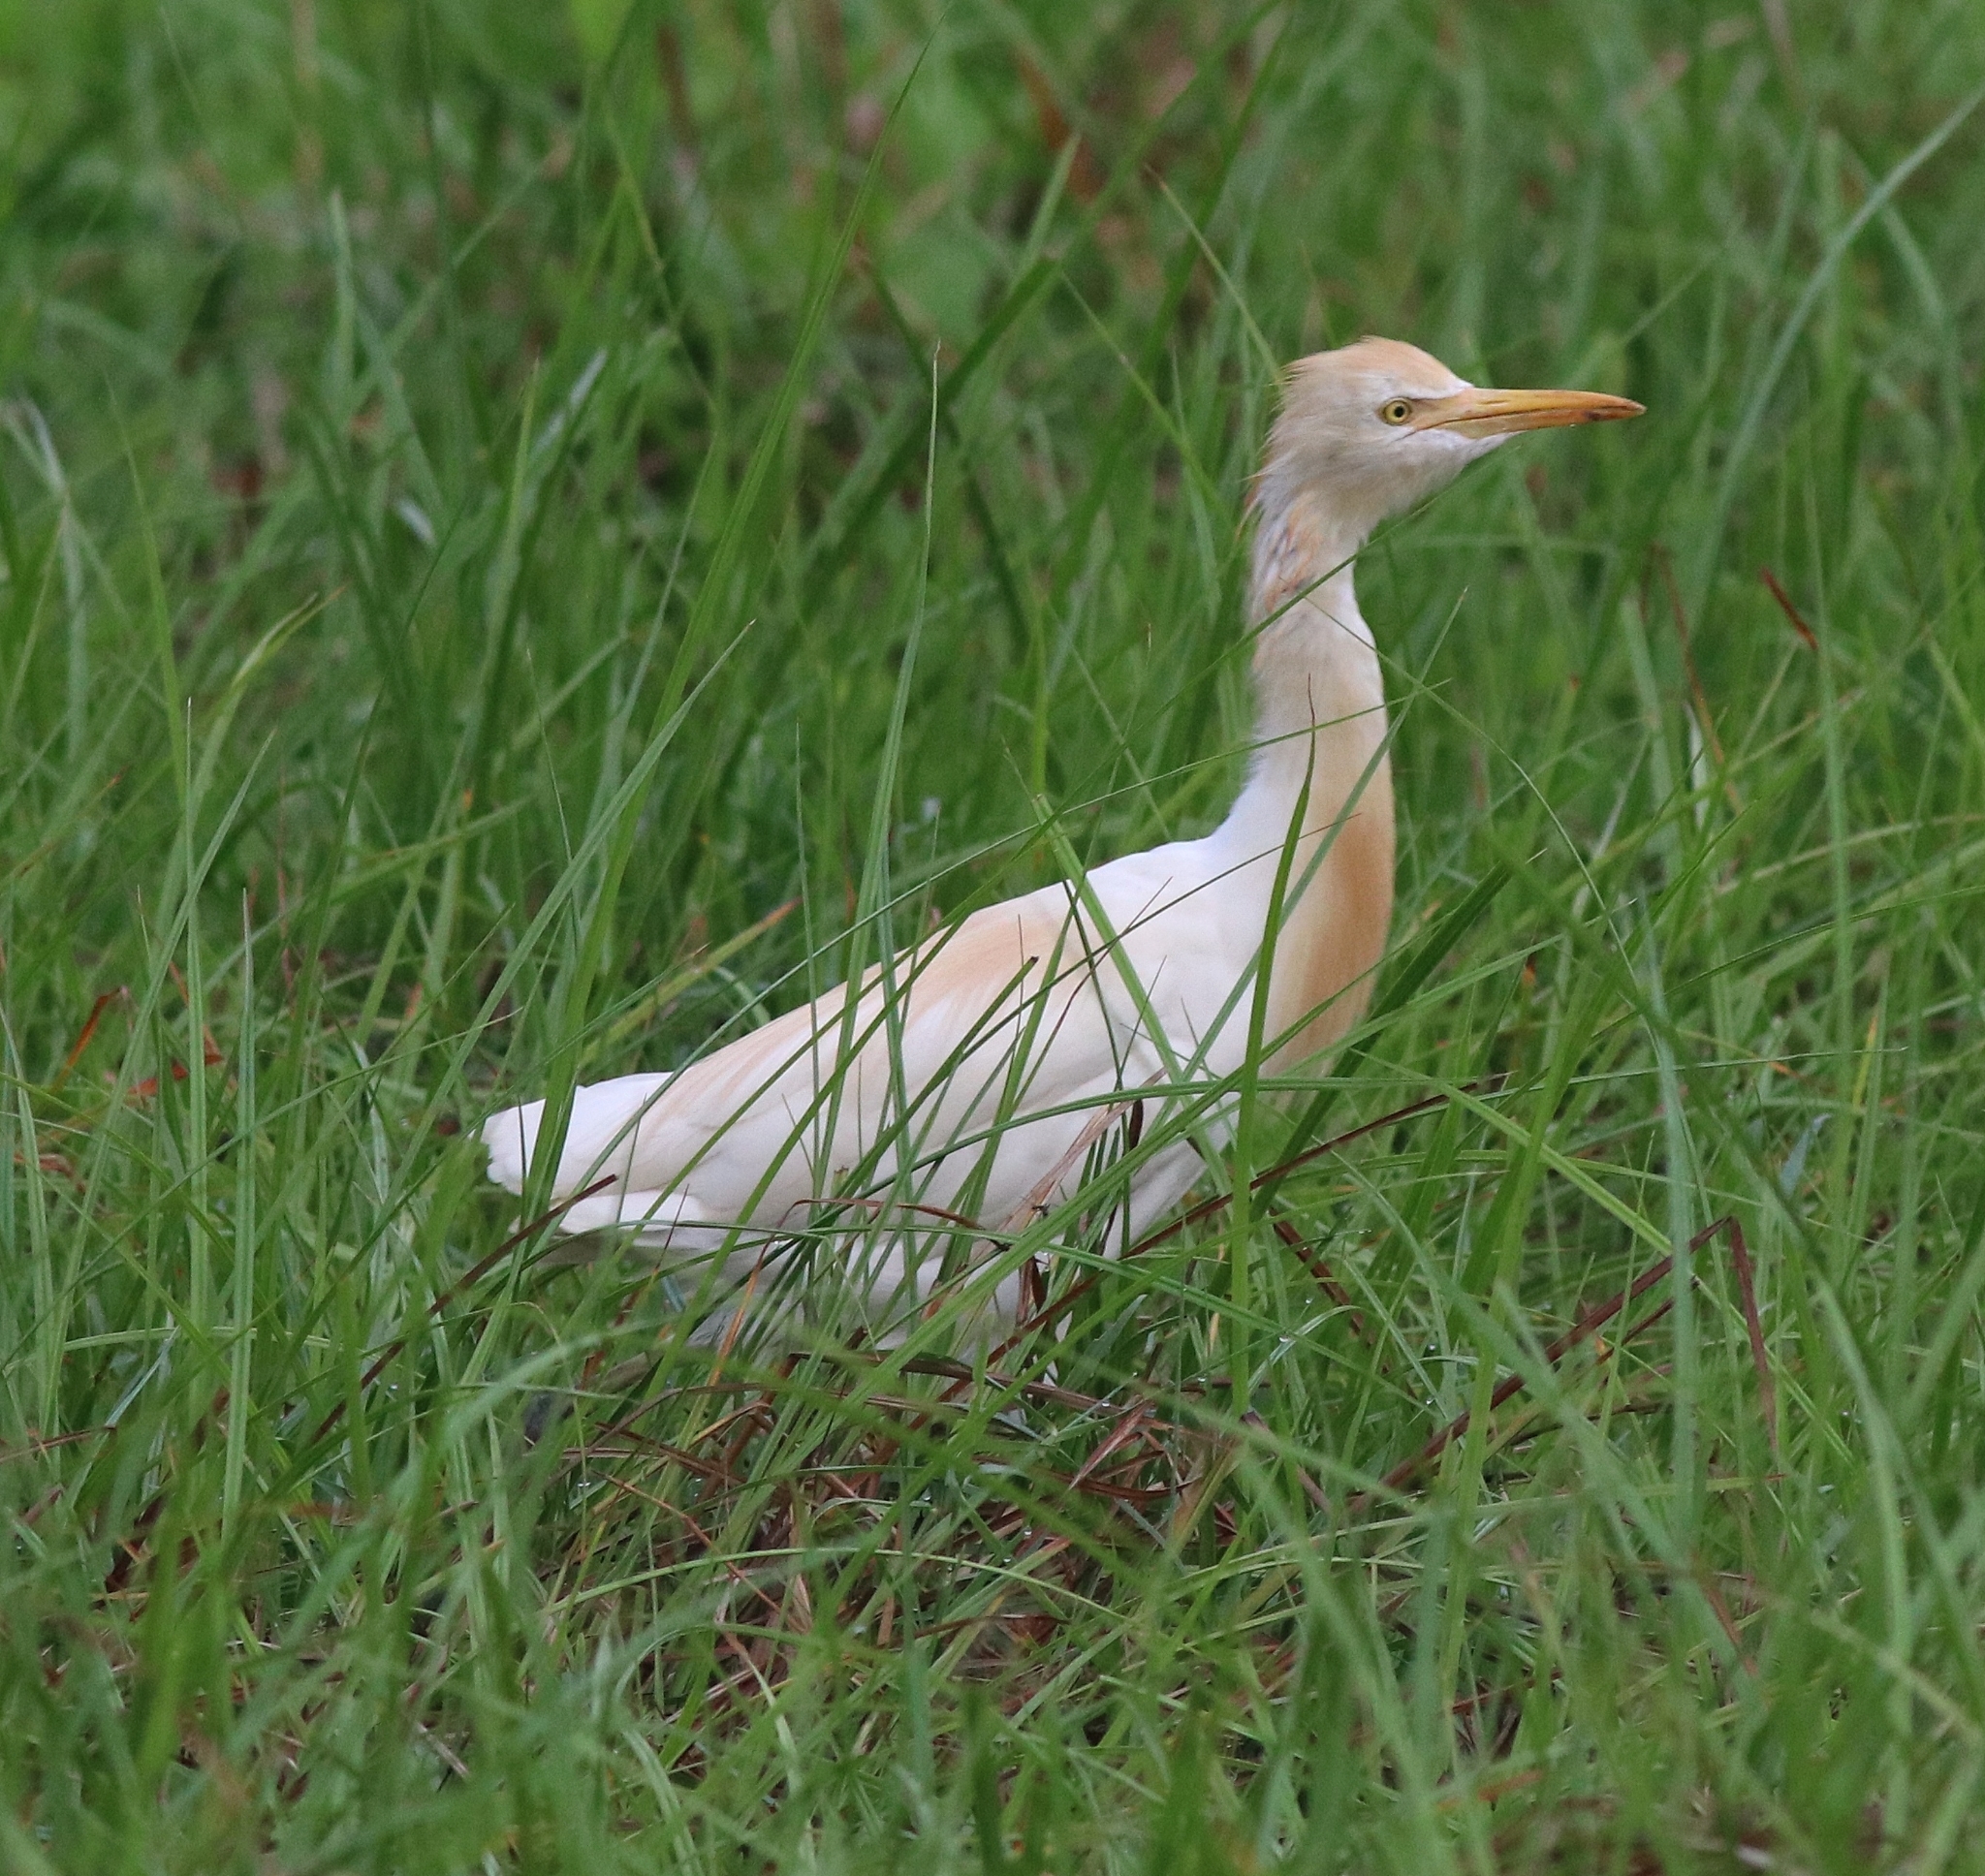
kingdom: Animalia
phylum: Chordata
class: Aves
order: Pelecaniformes
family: Ardeidae
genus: Bubulcus
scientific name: Bubulcus coromandus
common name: Eastern cattle egret
